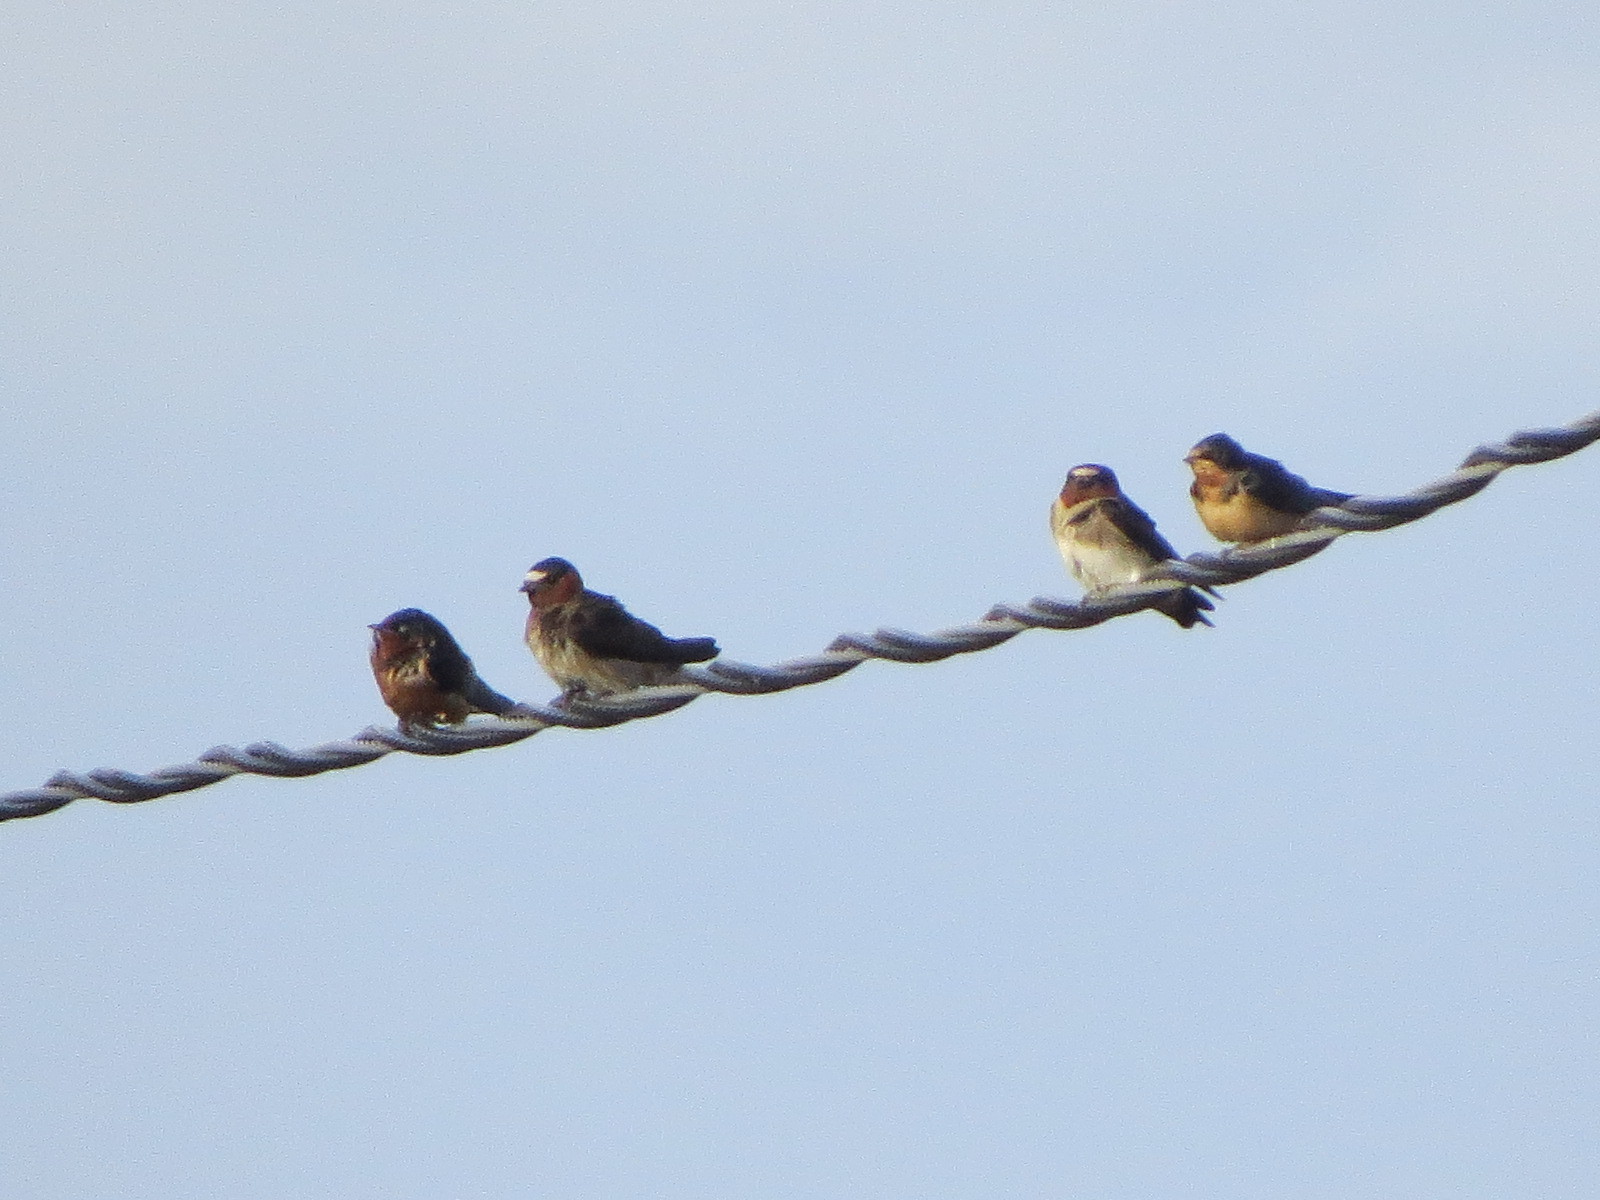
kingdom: Animalia
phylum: Chordata
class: Aves
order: Passeriformes
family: Hirundinidae
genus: Hirundo
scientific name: Hirundo rustica
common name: Barn swallow
